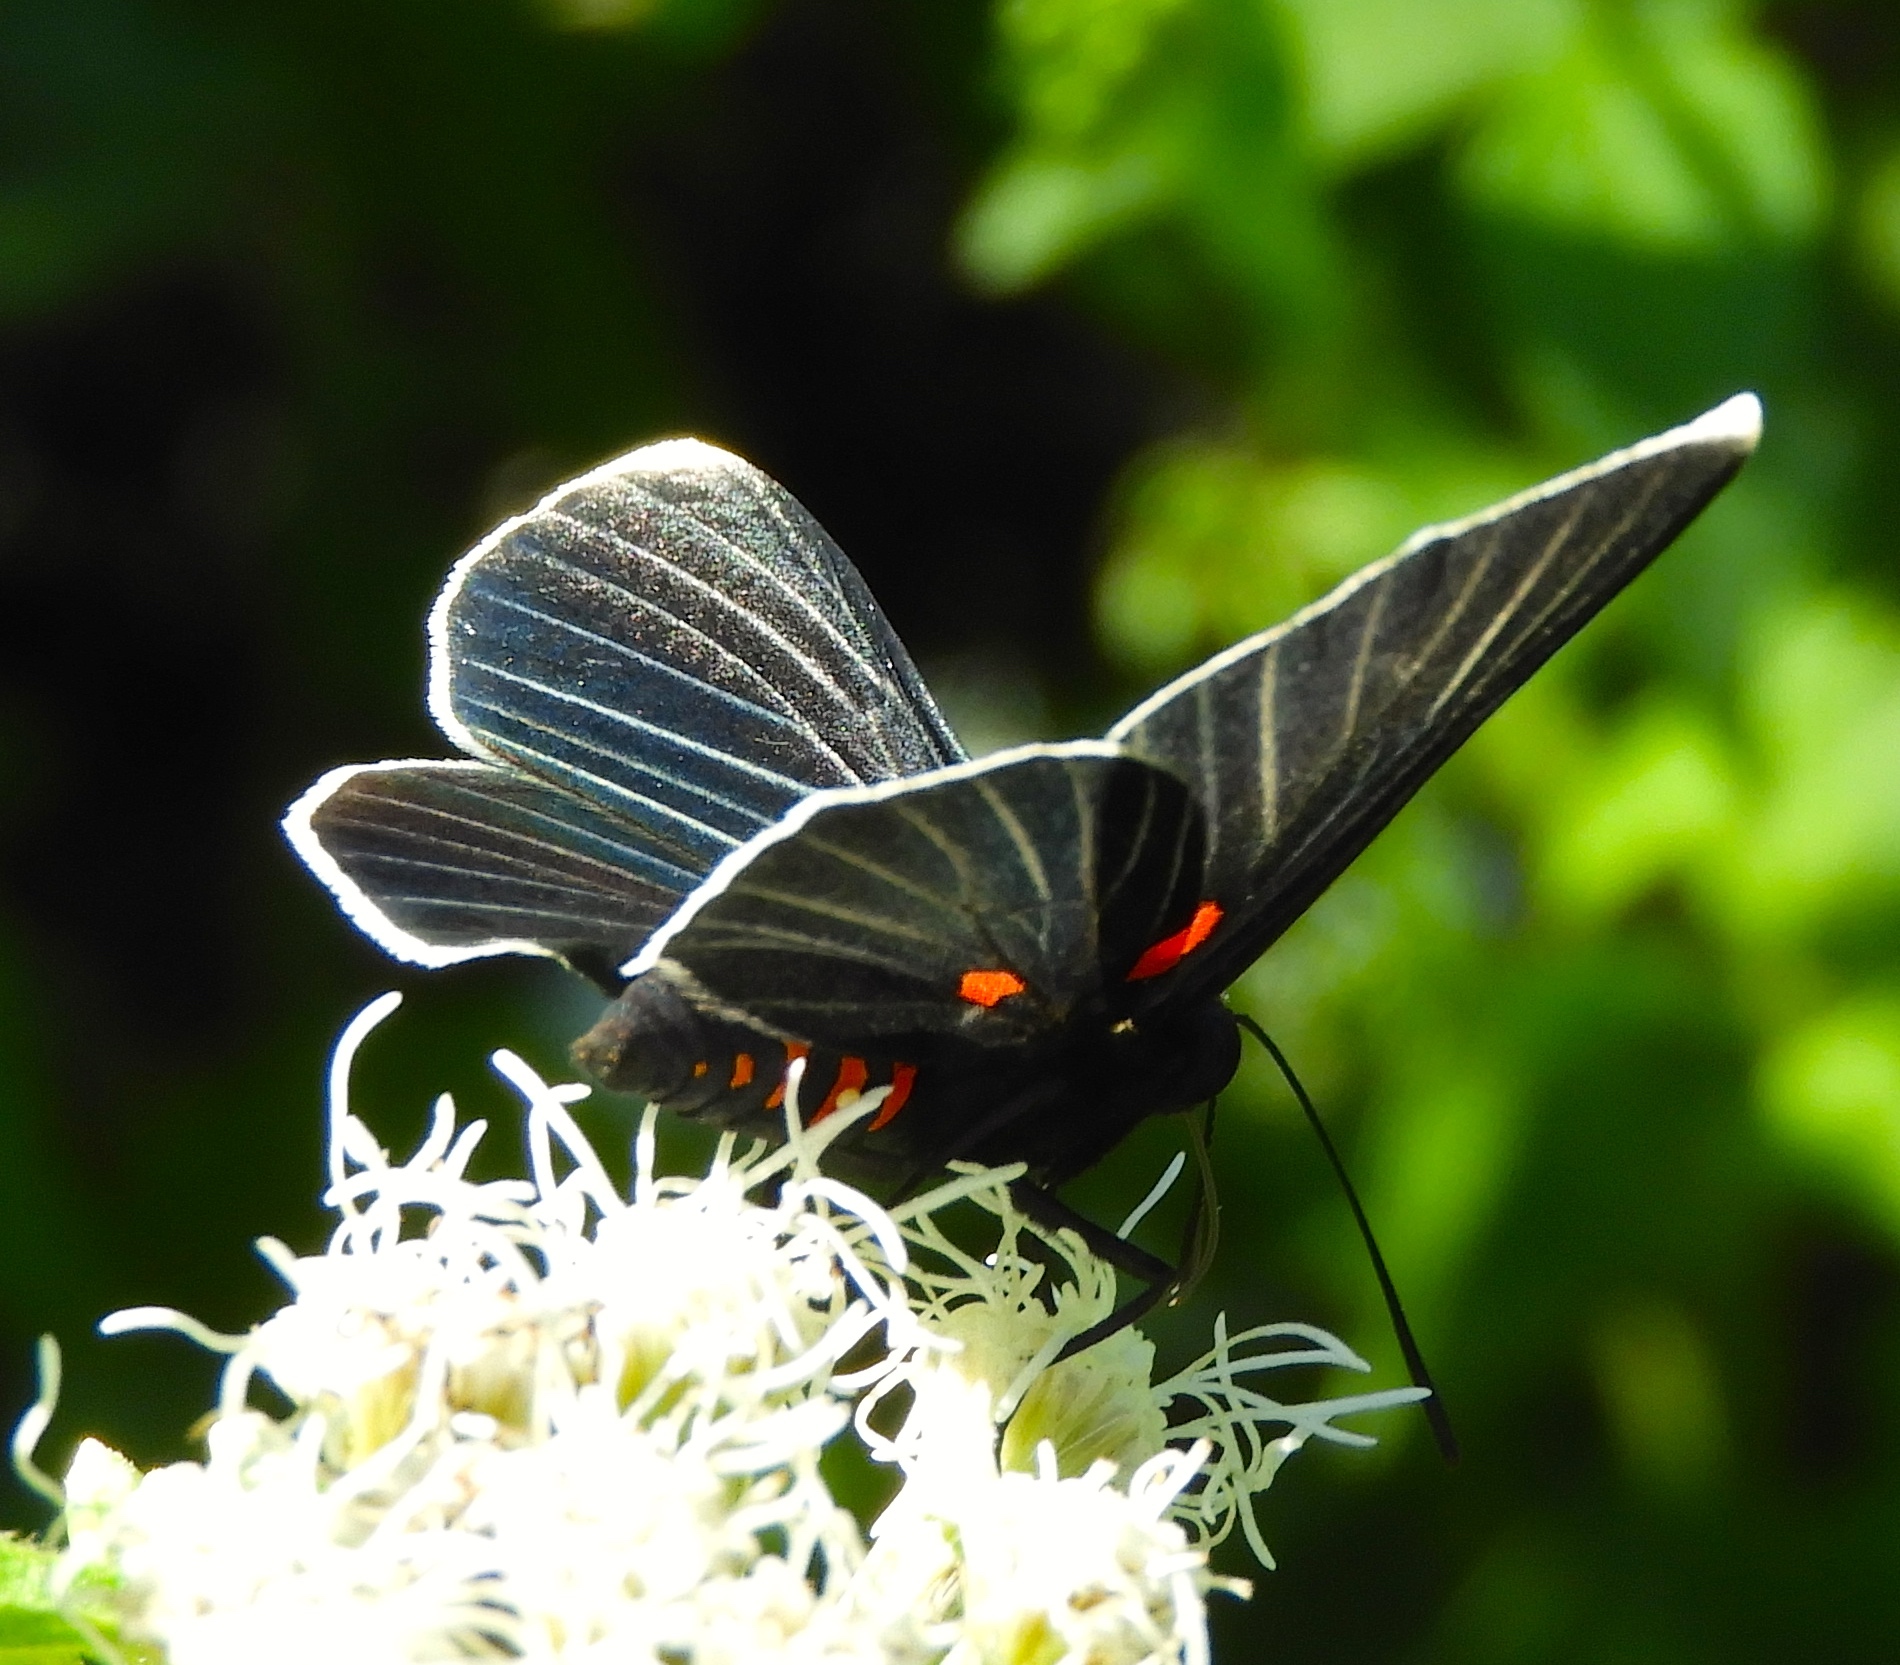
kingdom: Animalia
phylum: Arthropoda
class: Insecta
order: Lepidoptera
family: Lycaenidae
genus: Melanis
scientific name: Melanis
